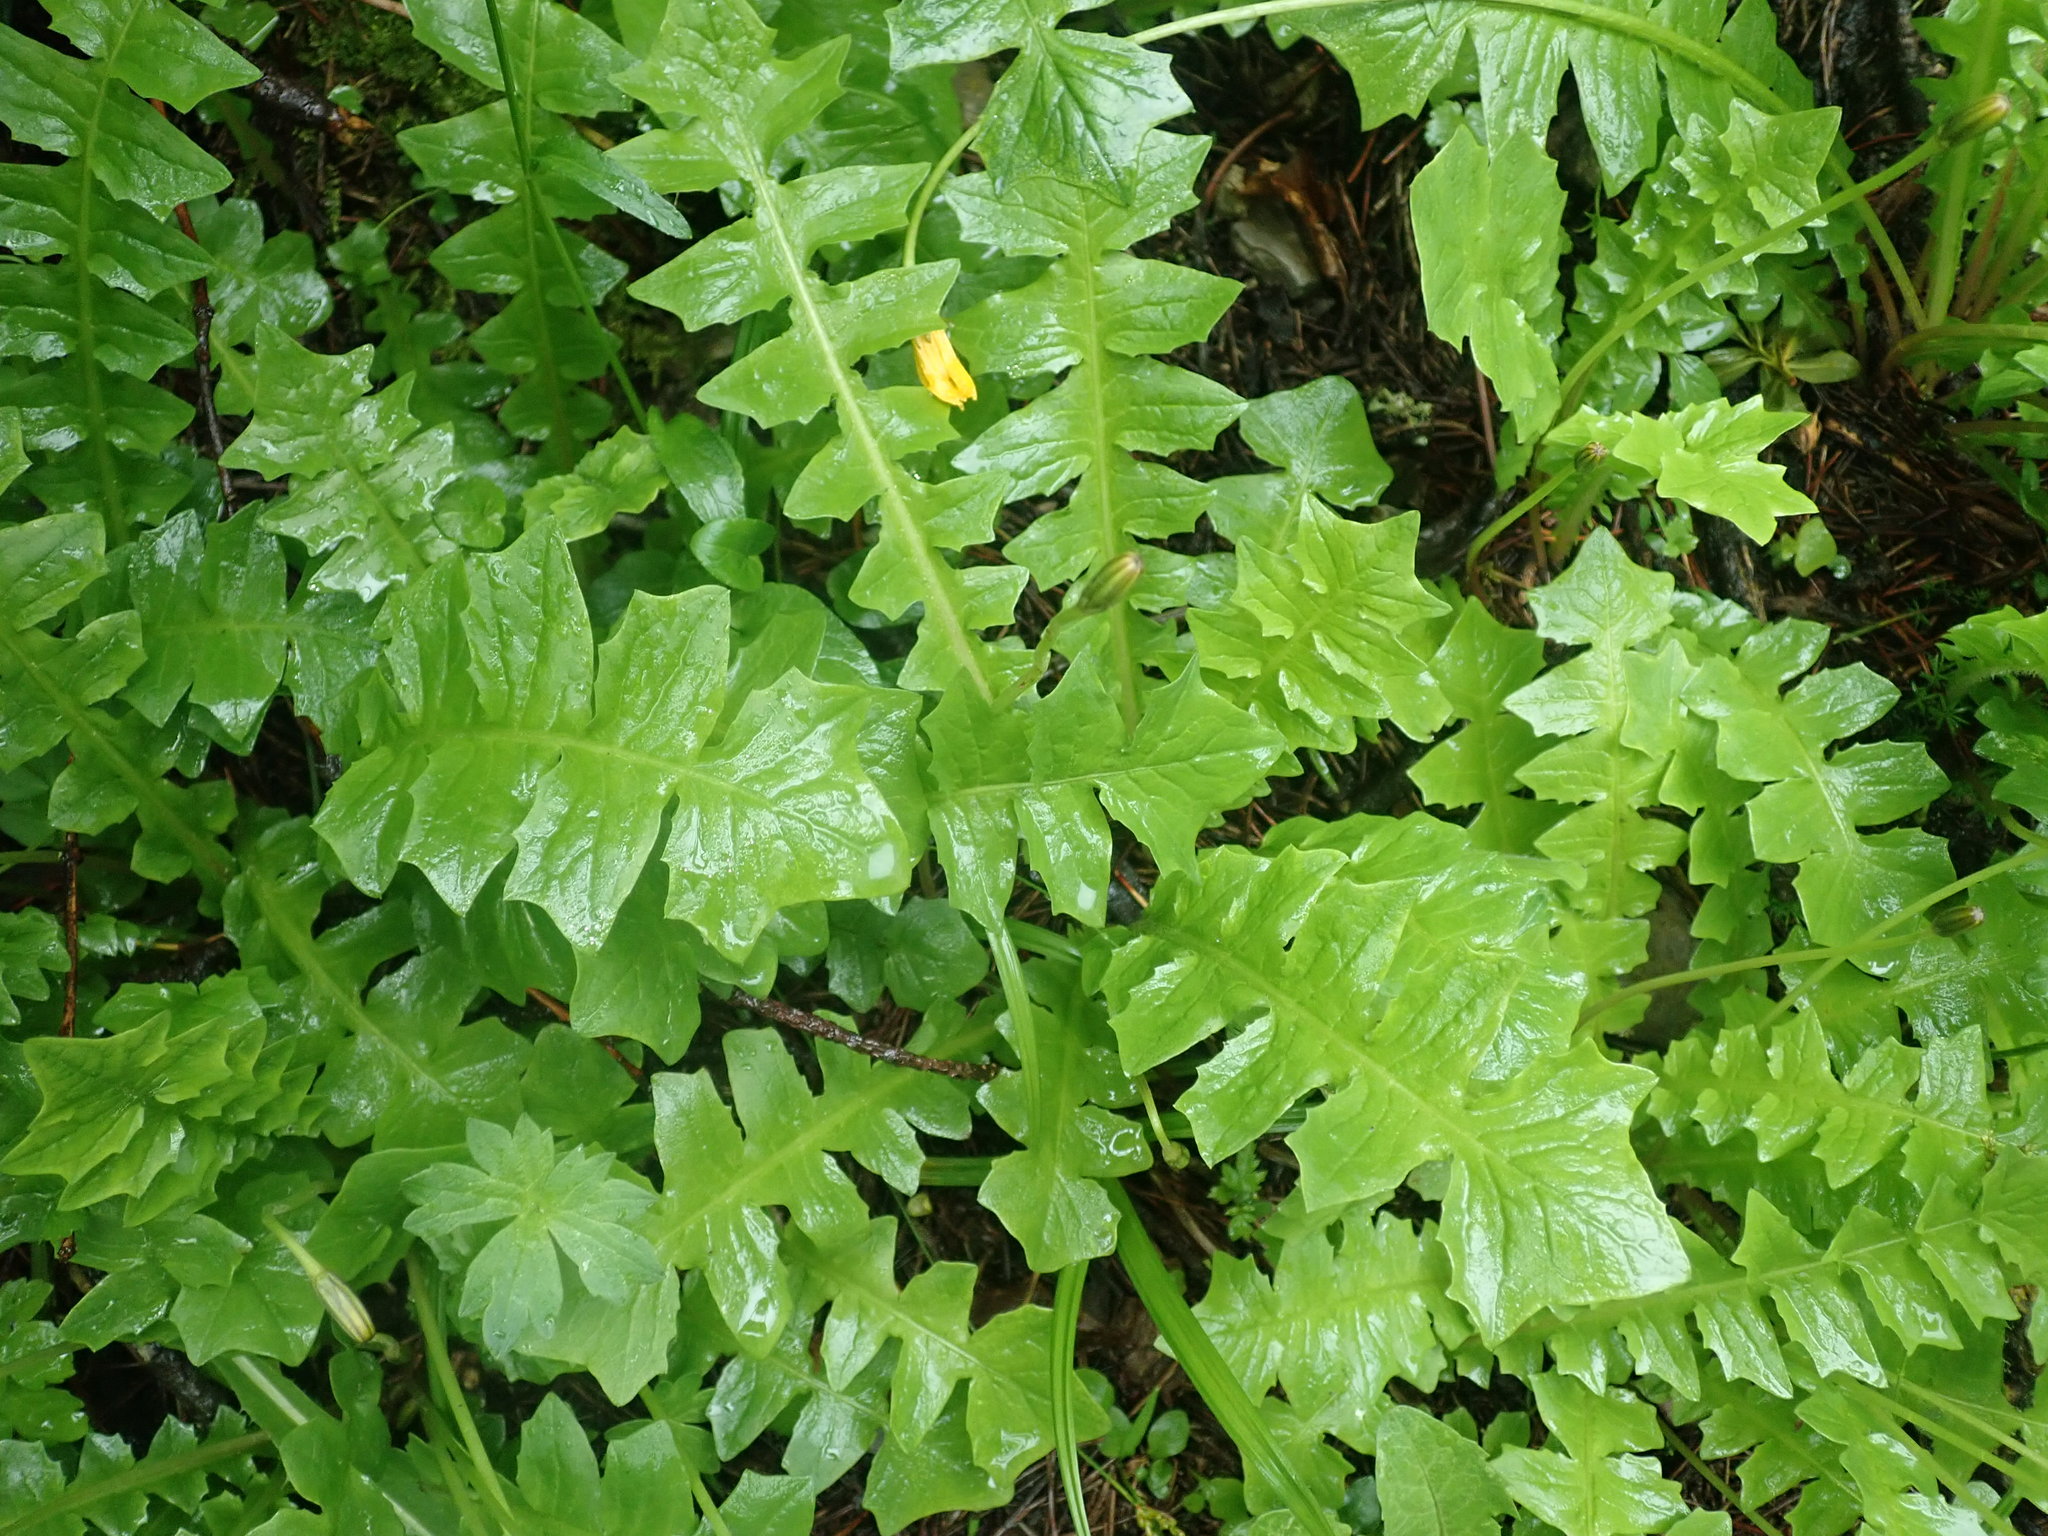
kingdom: Plantae
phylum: Tracheophyta
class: Magnoliopsida
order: Asterales
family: Asteraceae
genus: Aposeris
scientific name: Aposeris foetida
